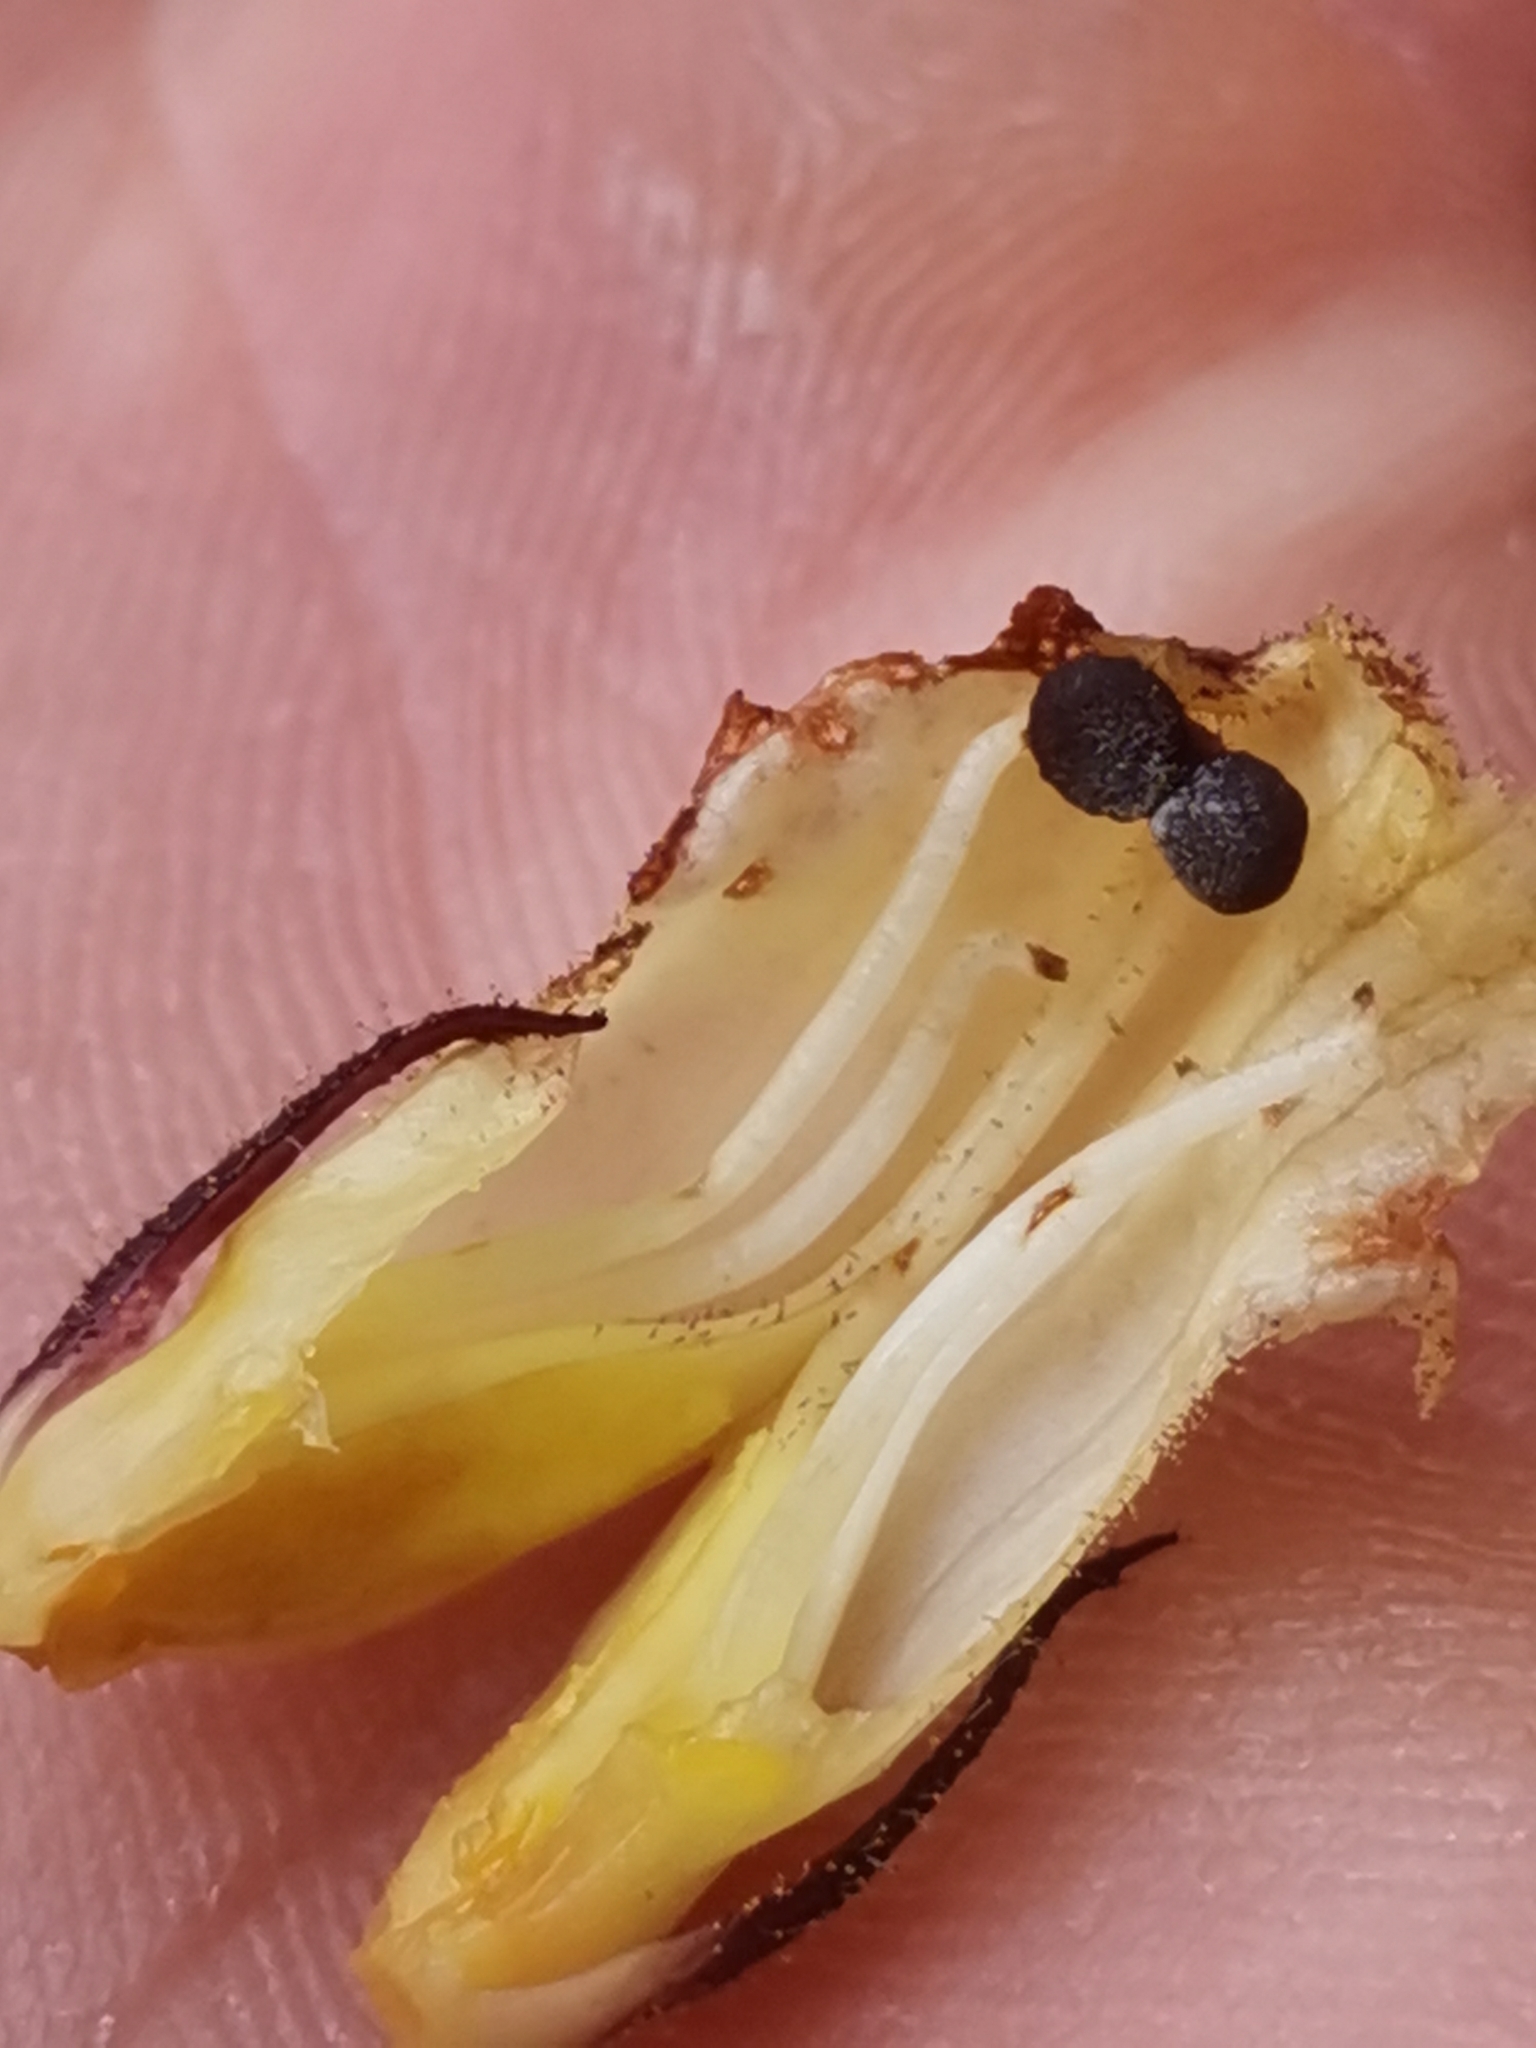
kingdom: Plantae
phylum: Tracheophyta
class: Magnoliopsida
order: Lamiales
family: Orobanchaceae
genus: Orobanche
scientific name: Orobanche reticulata
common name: Thistle broomrape
